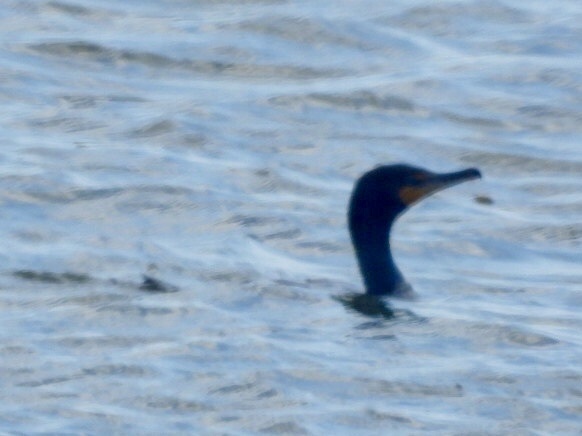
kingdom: Animalia
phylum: Chordata
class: Aves
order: Suliformes
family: Phalacrocoracidae
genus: Phalacrocorax
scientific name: Phalacrocorax auritus
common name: Double-crested cormorant
